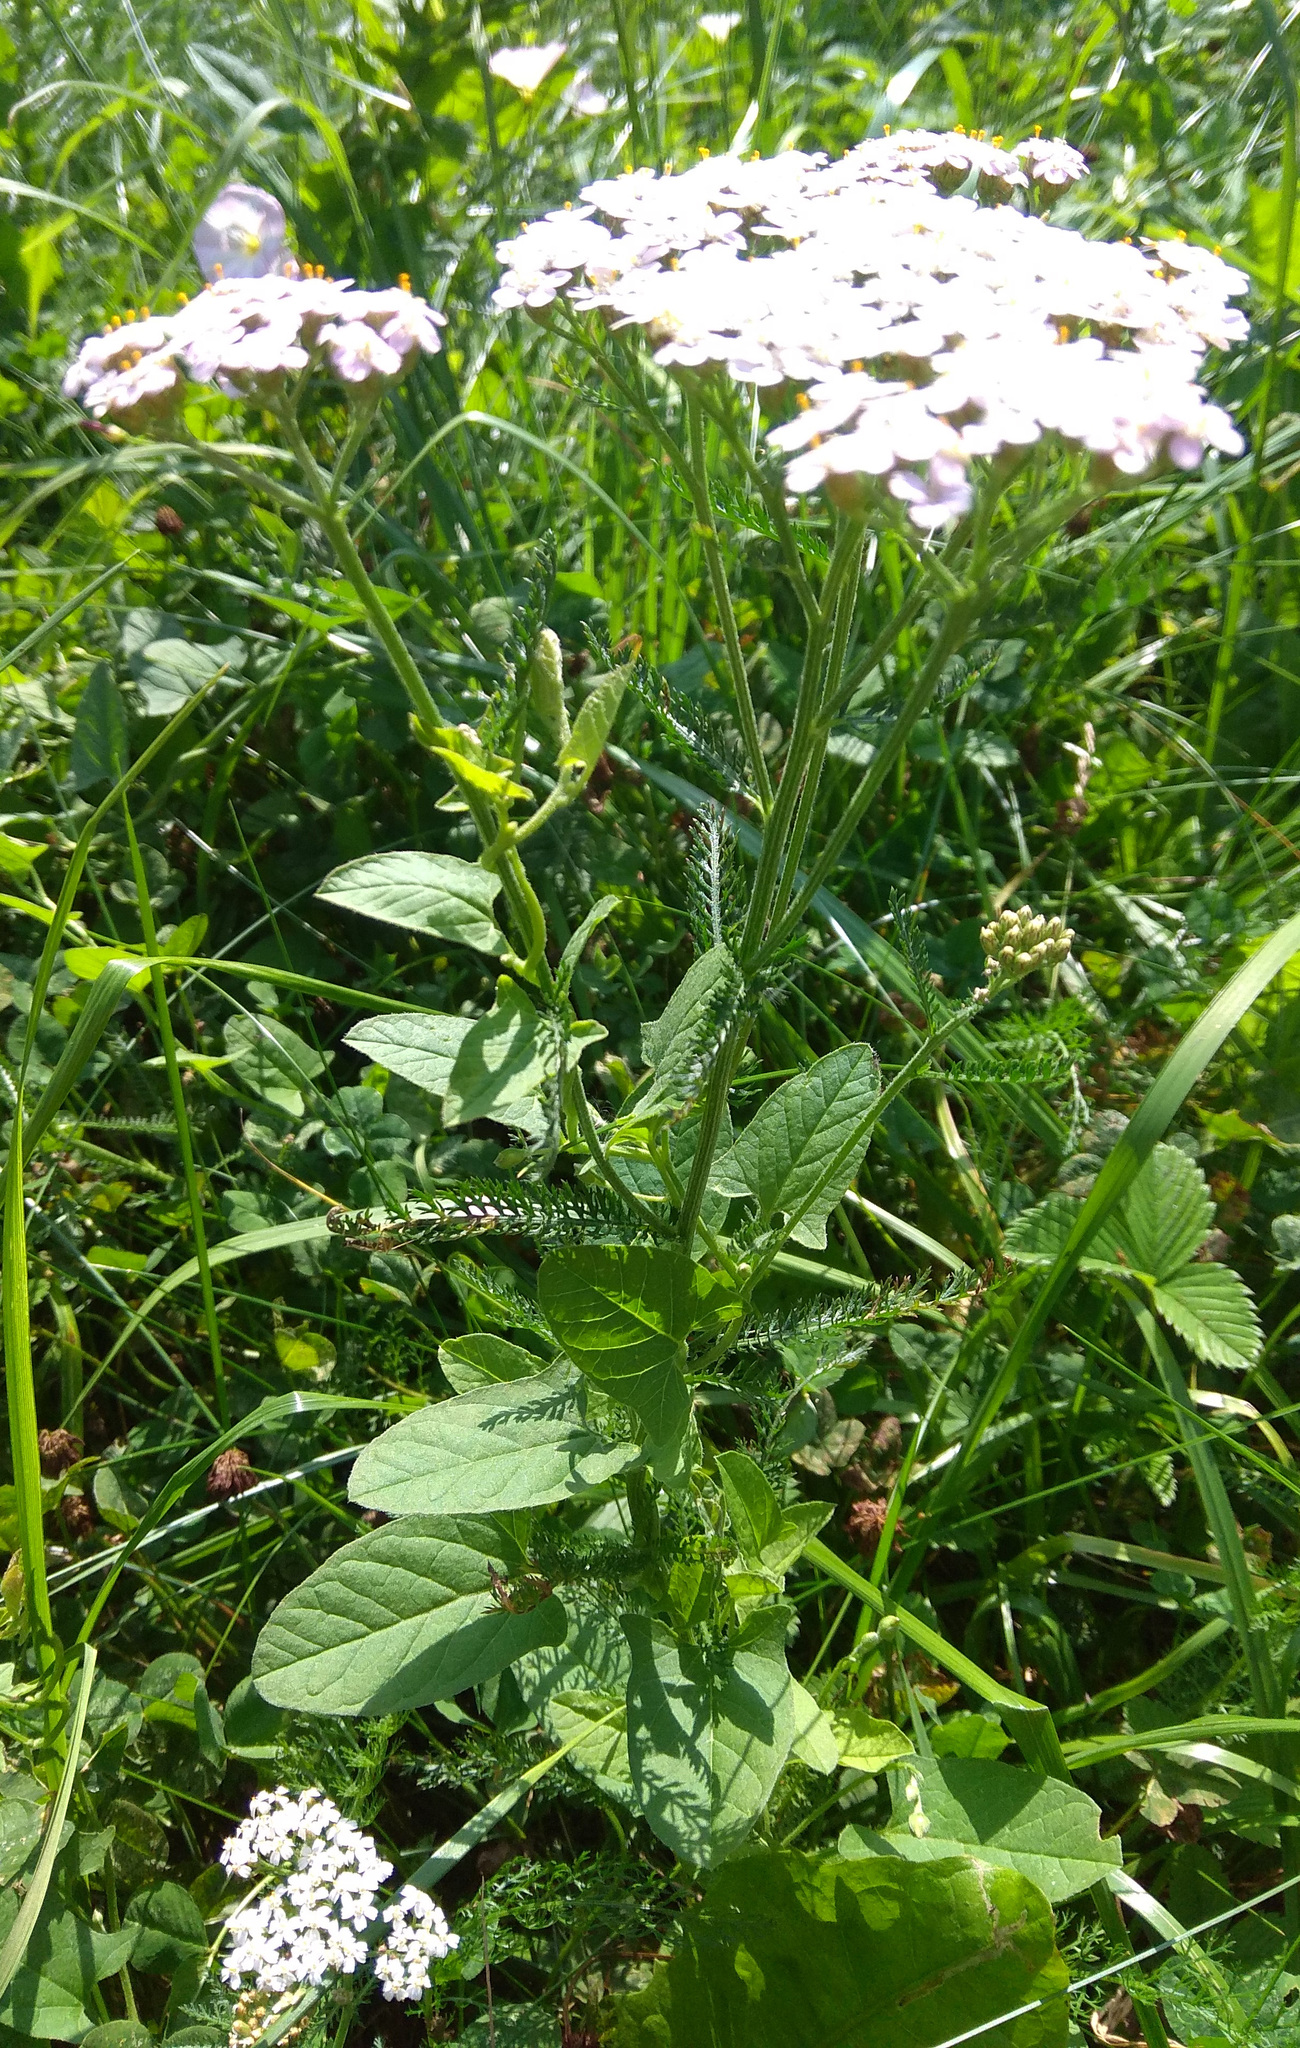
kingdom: Plantae
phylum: Tracheophyta
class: Magnoliopsida
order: Asterales
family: Asteraceae
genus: Achillea
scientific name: Achillea millefolium
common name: Yarrow
